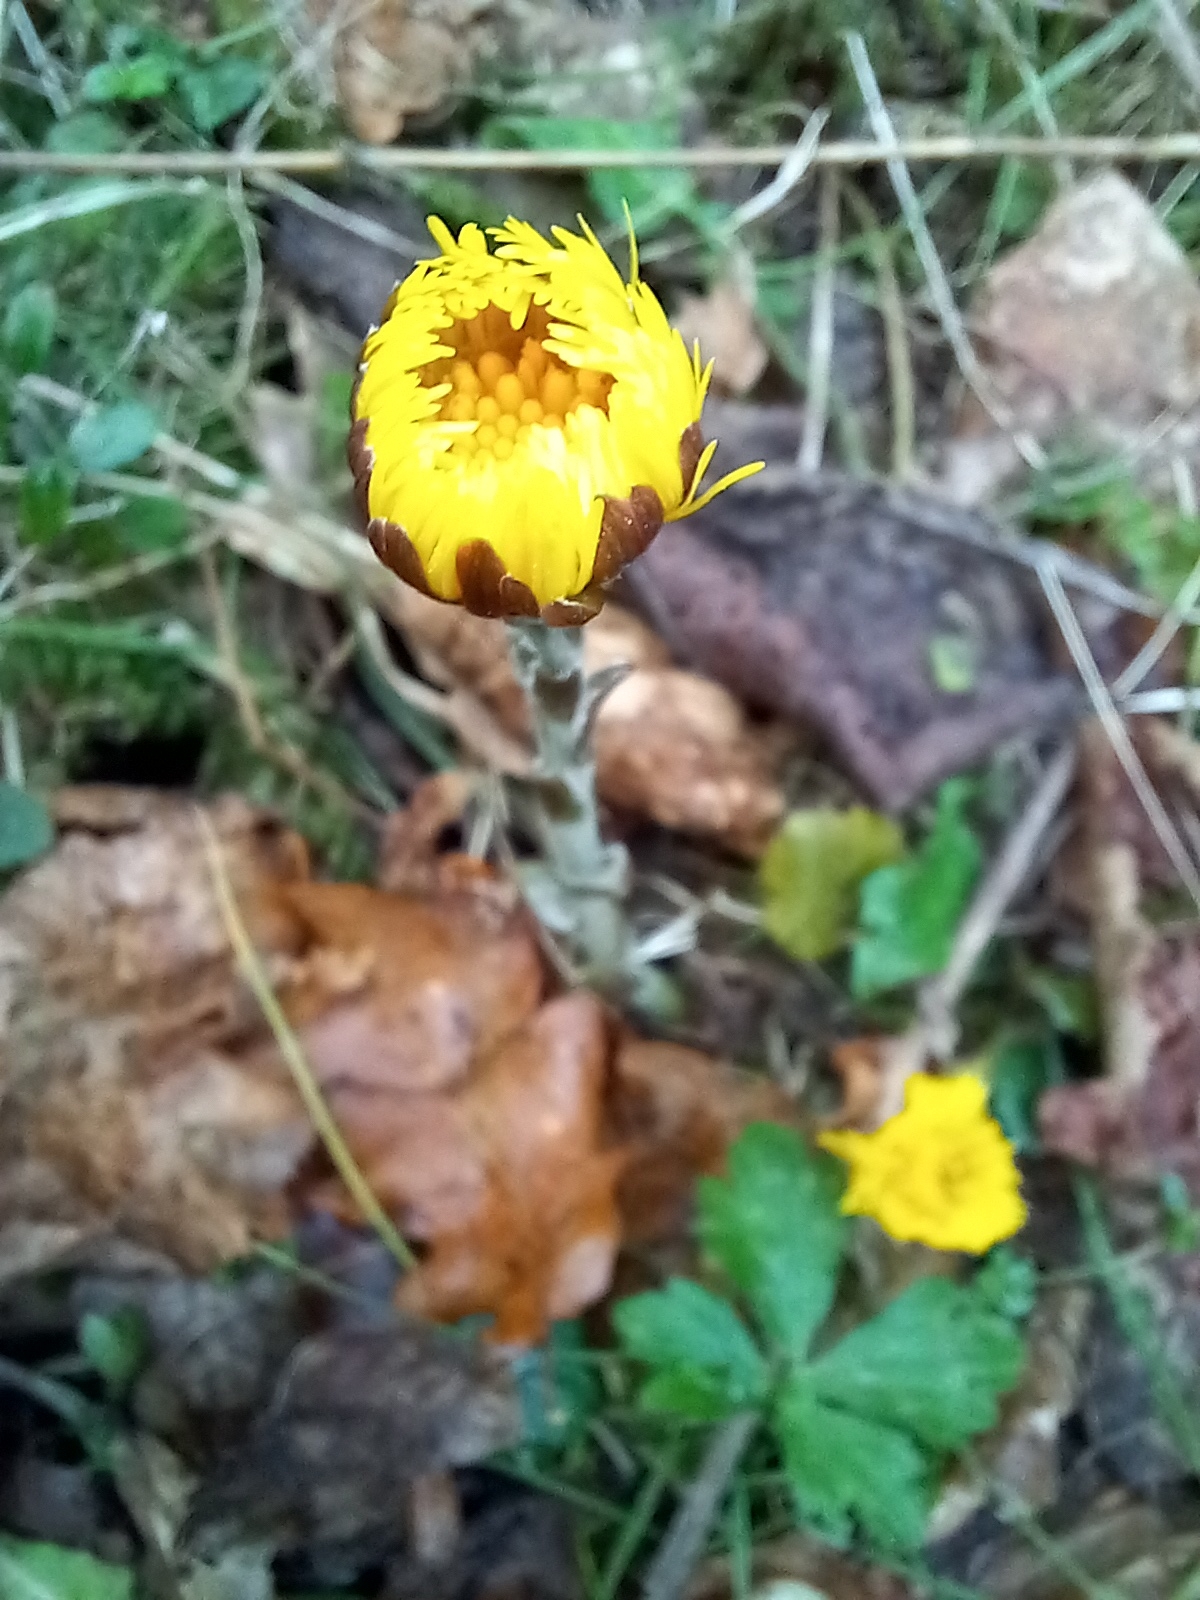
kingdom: Plantae
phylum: Tracheophyta
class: Magnoliopsida
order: Asterales
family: Asteraceae
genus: Tussilago
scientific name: Tussilago farfara
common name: Coltsfoot
